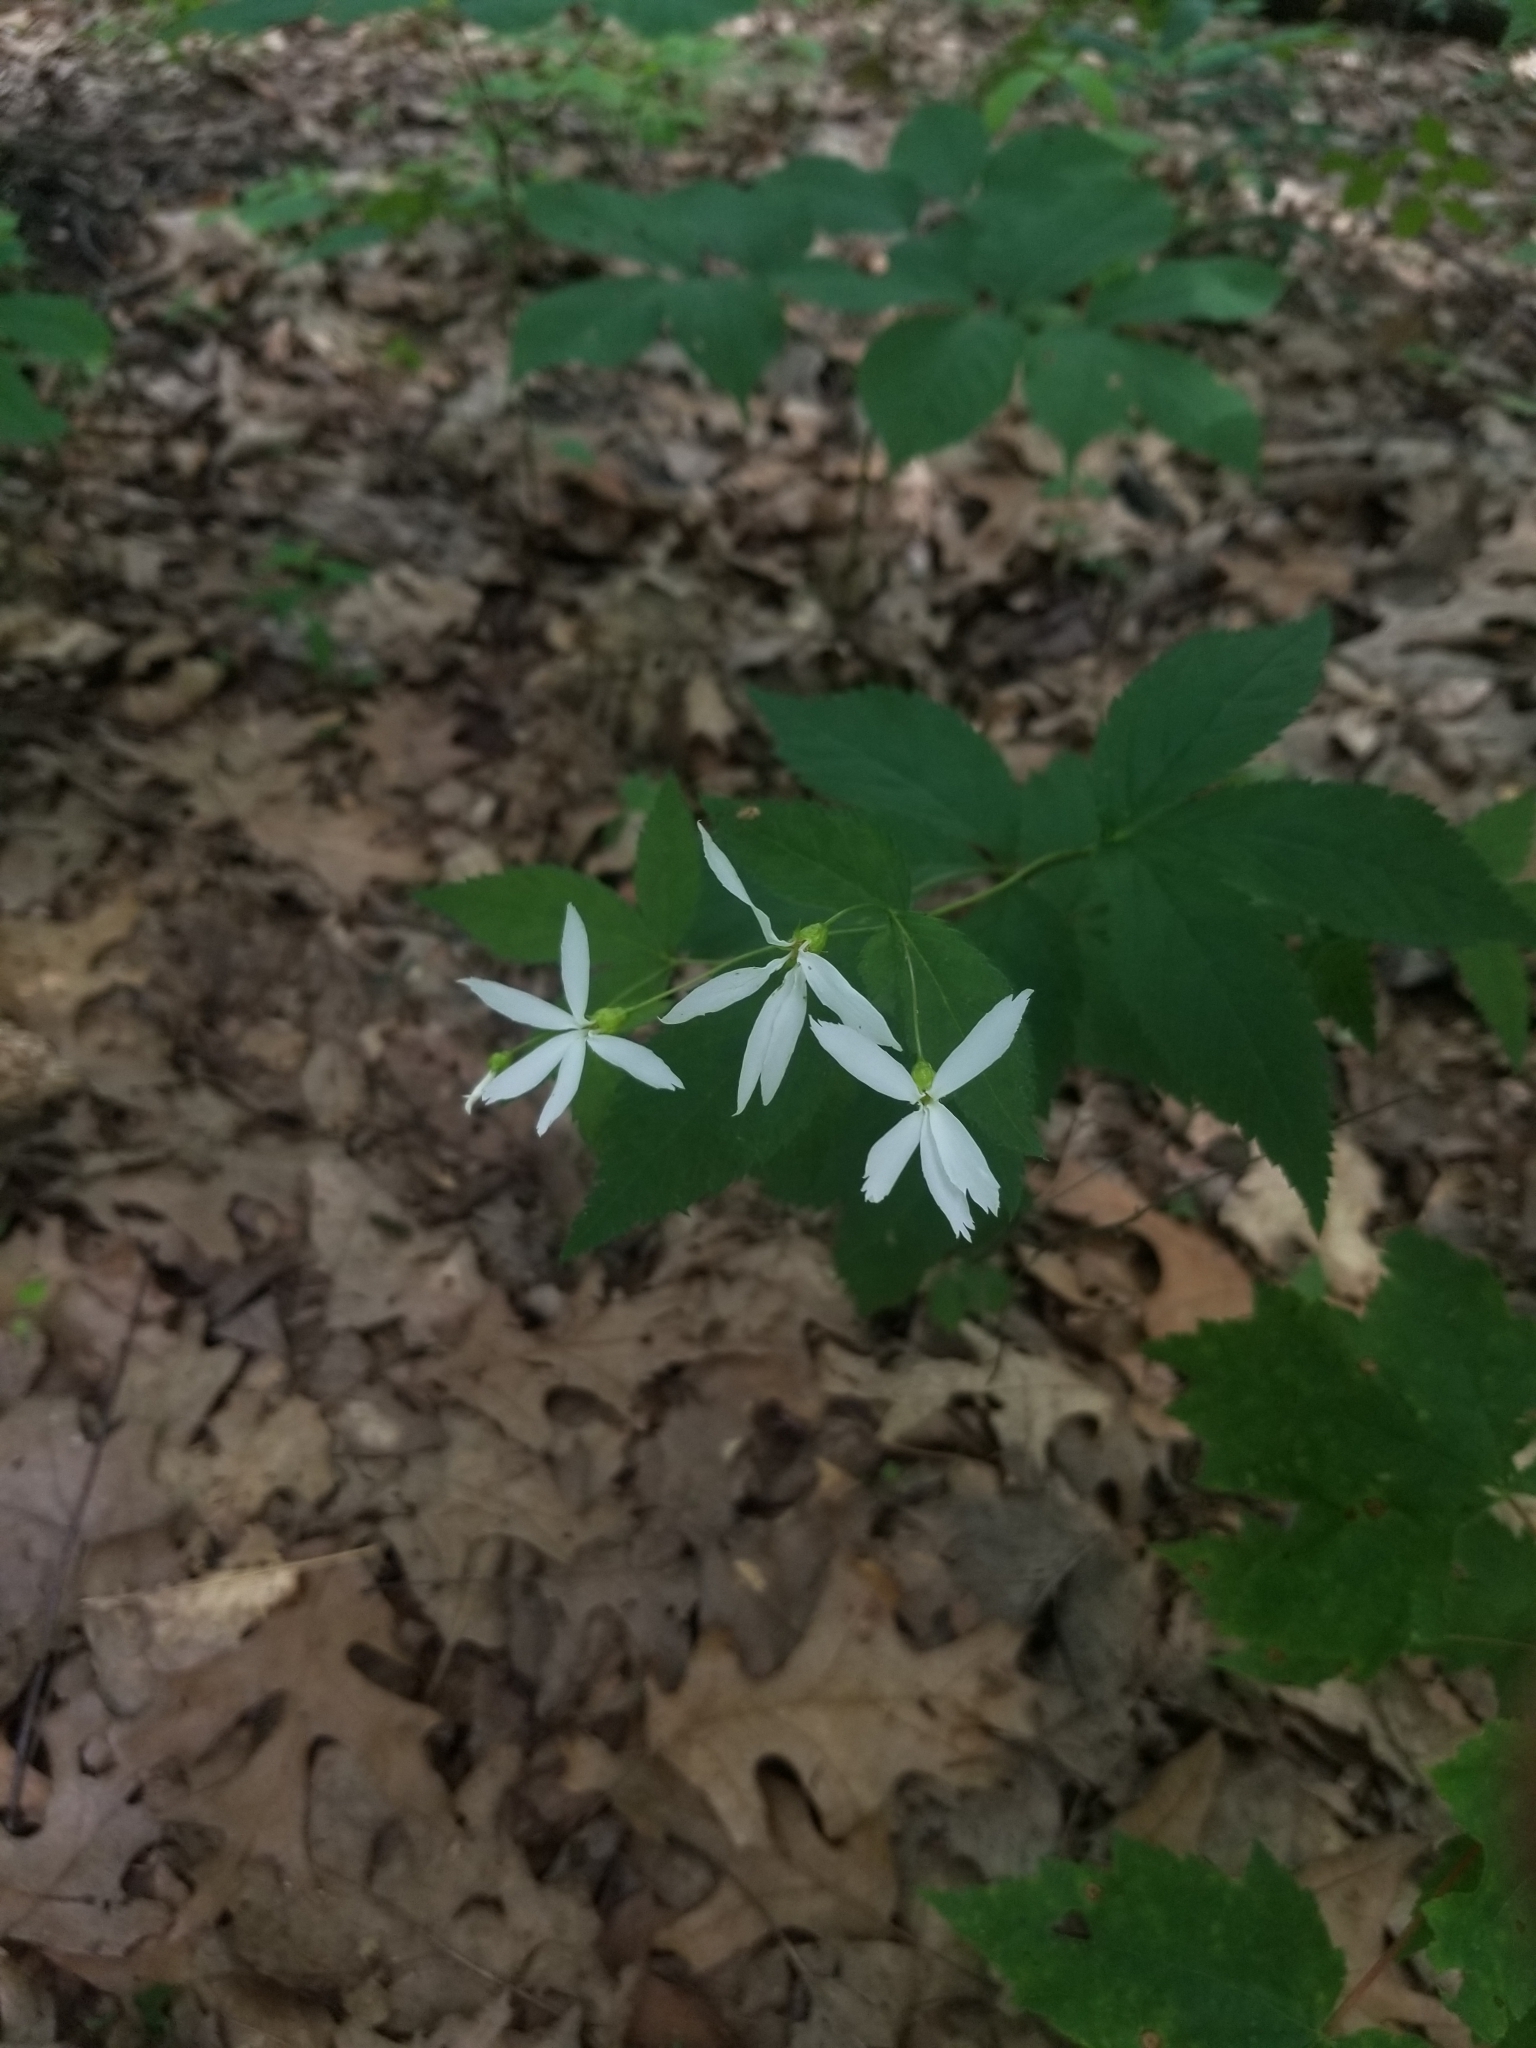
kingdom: Plantae
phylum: Tracheophyta
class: Magnoliopsida
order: Rosales
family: Rosaceae
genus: Gillenia
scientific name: Gillenia trifoliata
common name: Bowman's-root
